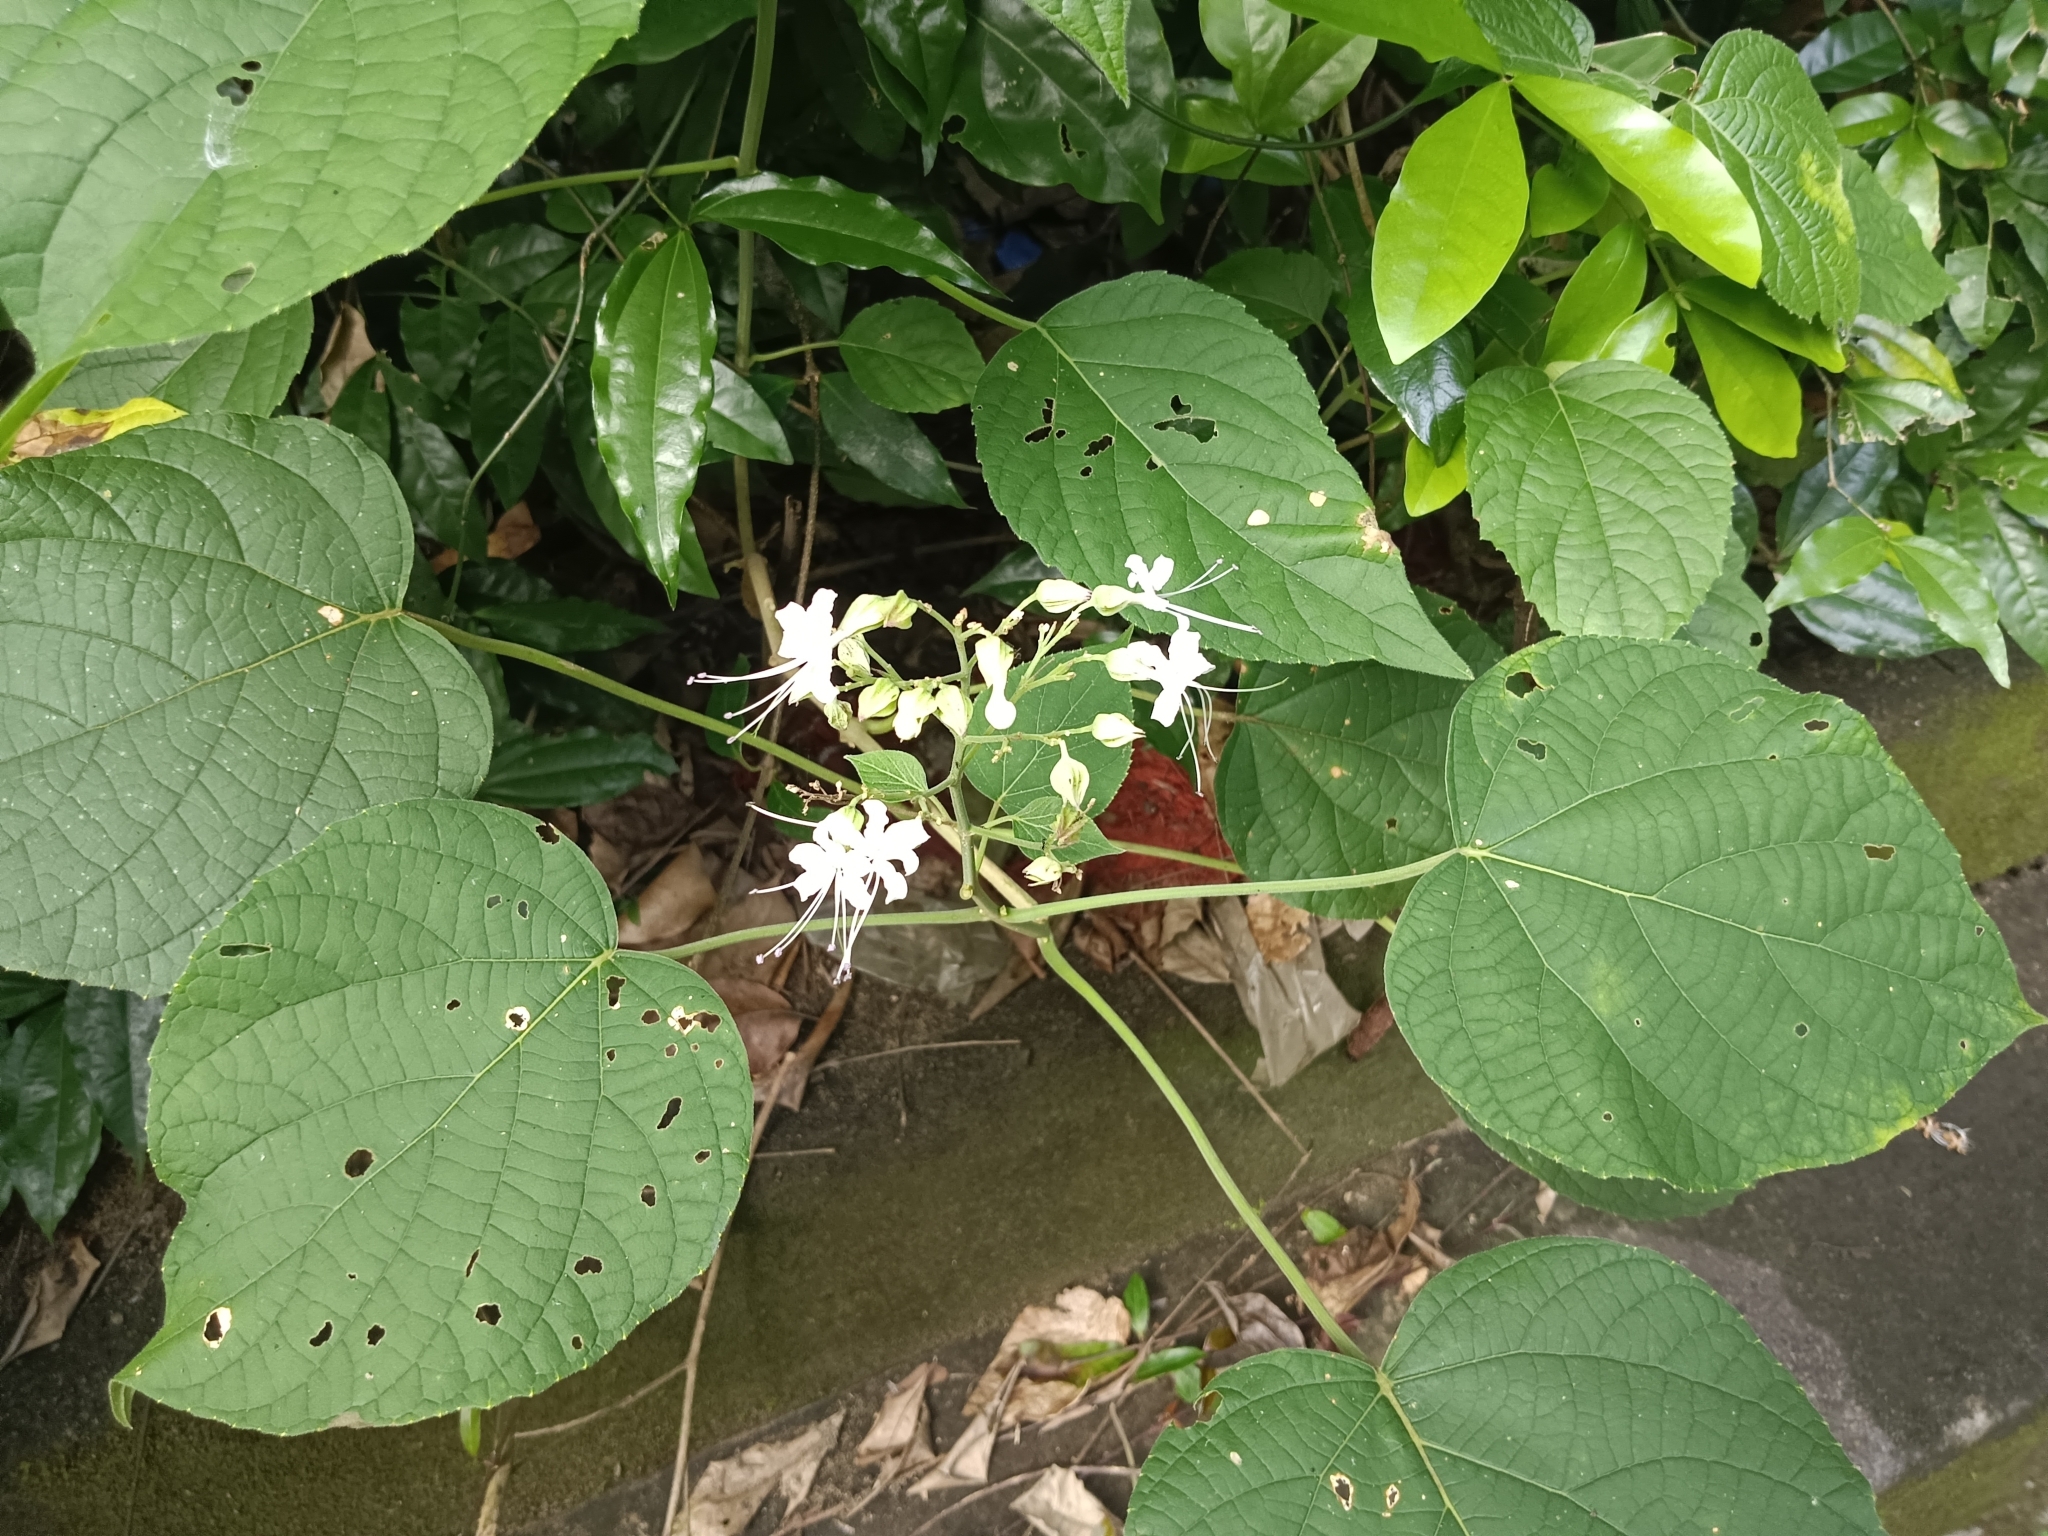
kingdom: Plantae
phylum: Tracheophyta
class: Magnoliopsida
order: Lamiales
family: Lamiaceae
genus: Clerodendrum
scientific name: Clerodendrum infortunatum
